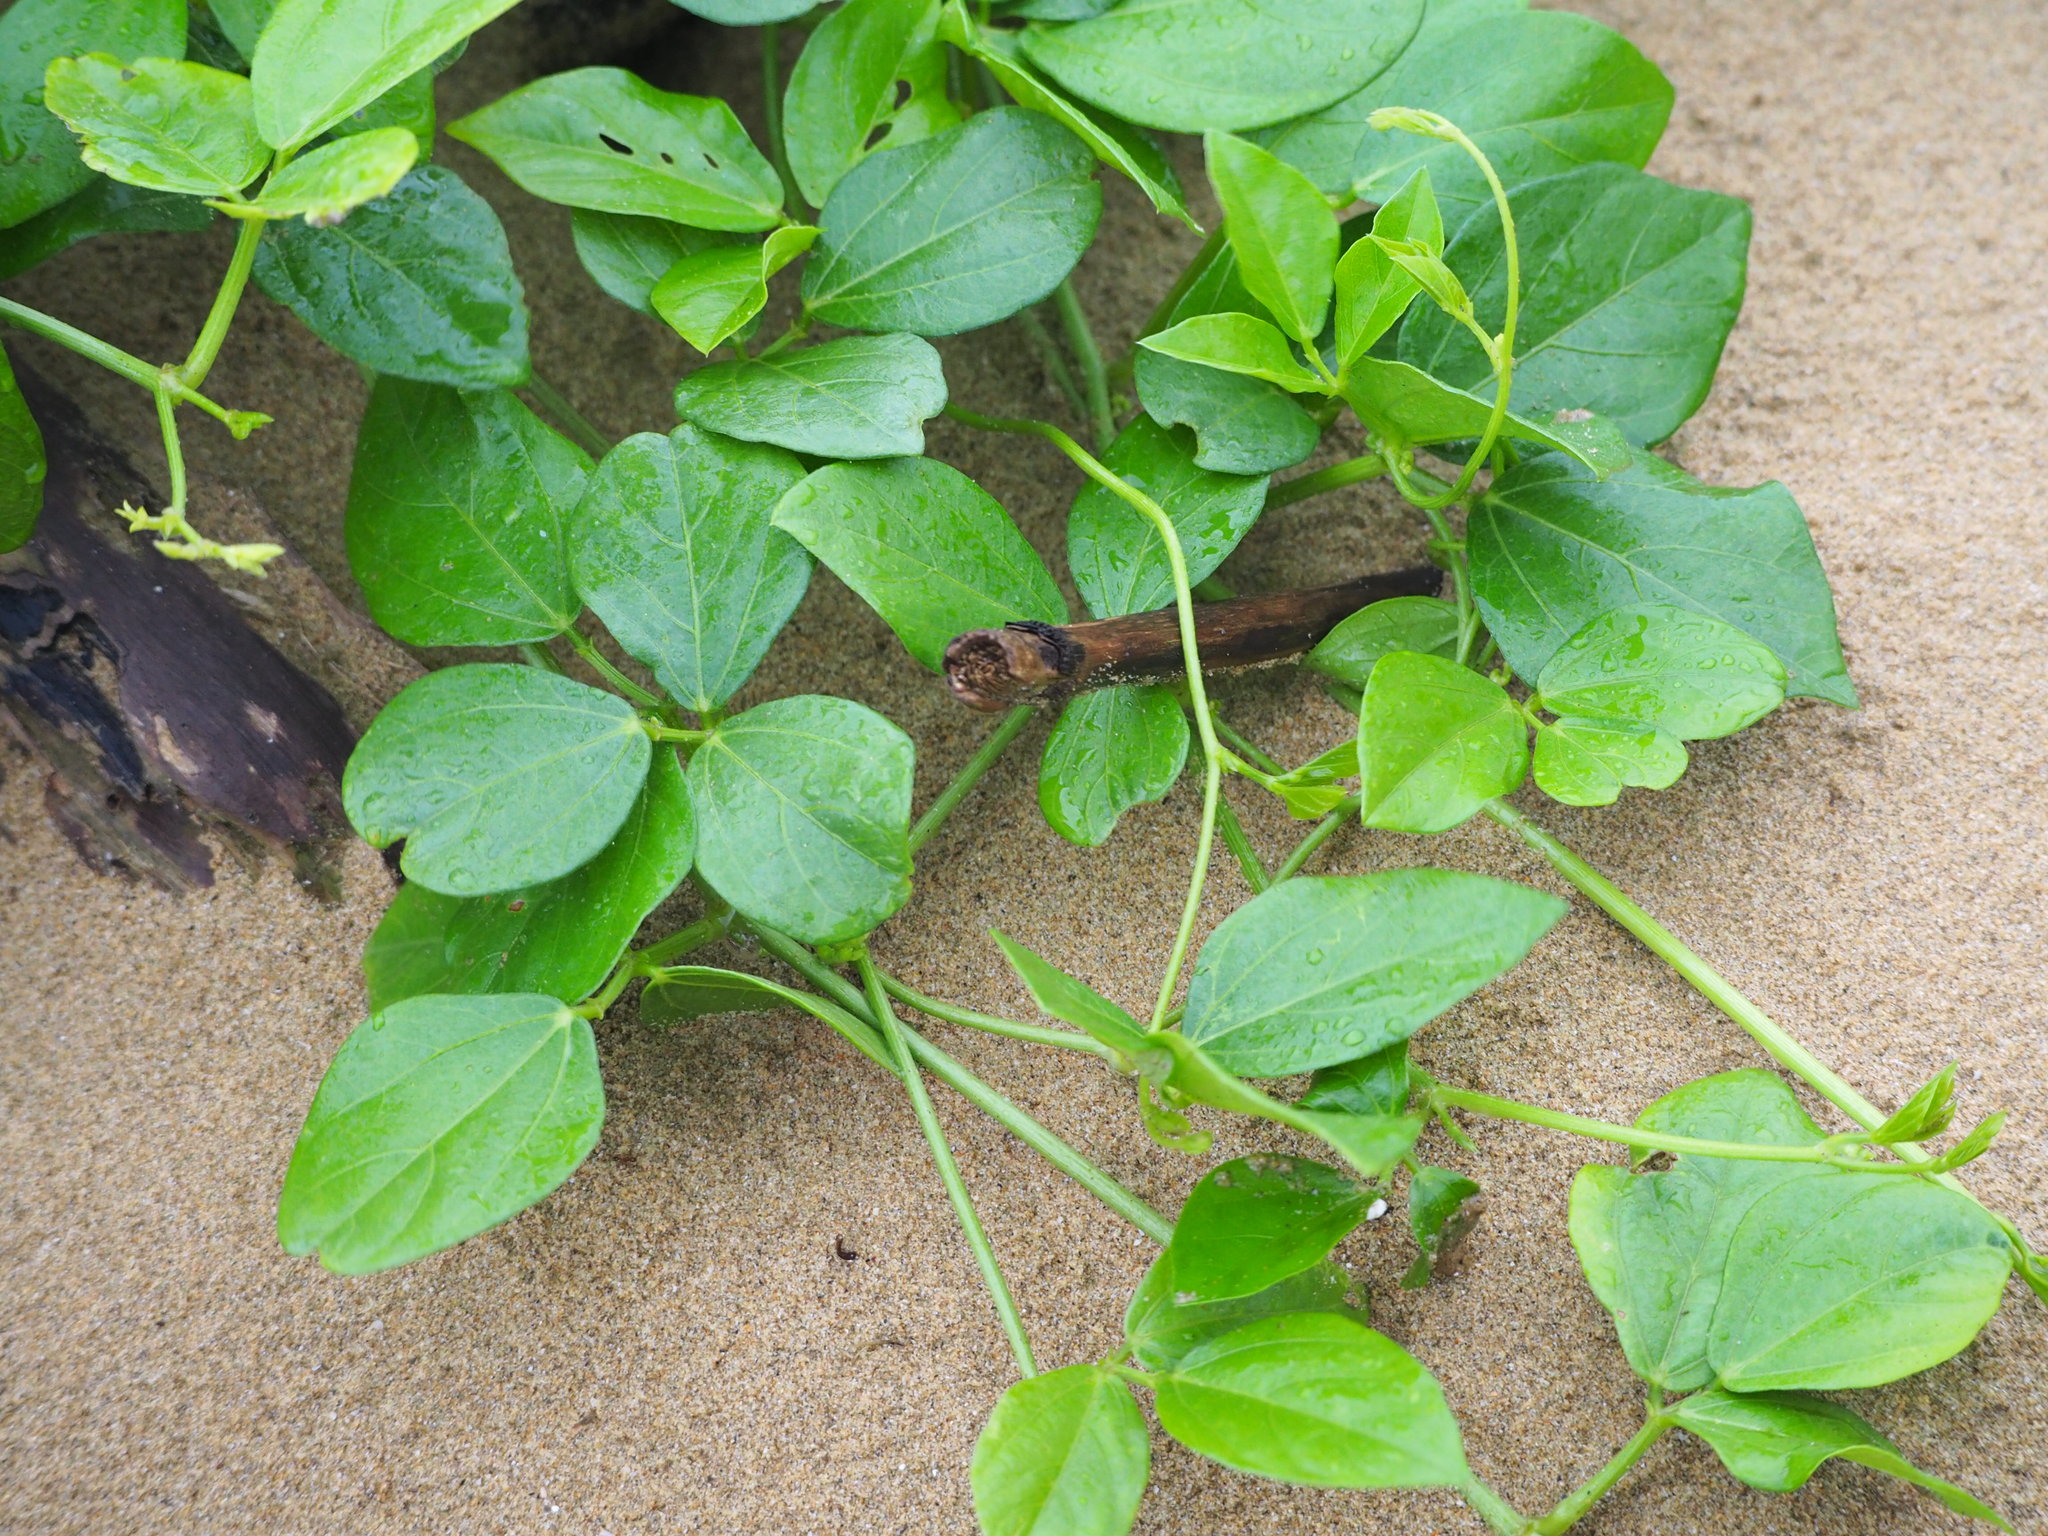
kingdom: Plantae
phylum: Tracheophyta
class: Magnoliopsida
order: Fabales
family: Fabaceae
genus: Vigna
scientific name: Vigna marina
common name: Dune-bean
